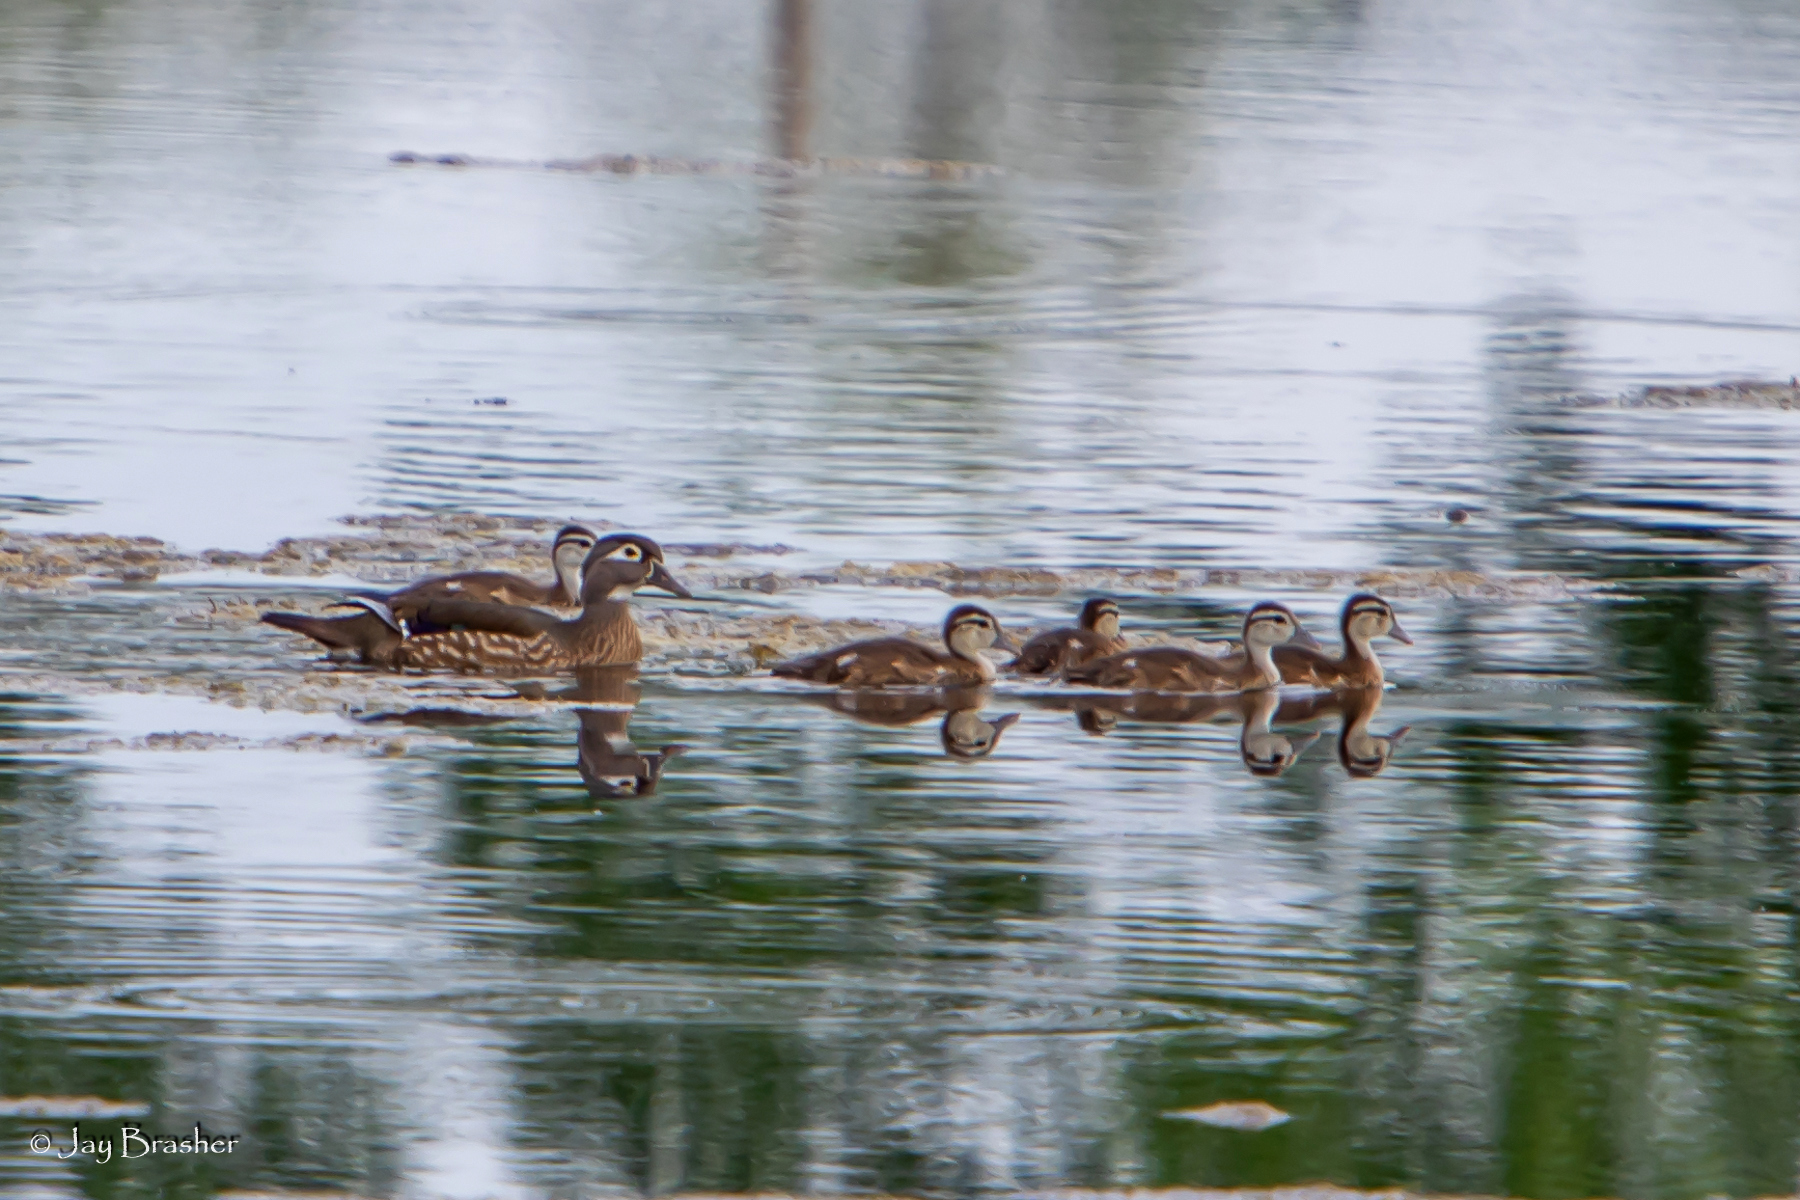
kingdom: Animalia
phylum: Chordata
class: Aves
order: Anseriformes
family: Anatidae
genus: Aix
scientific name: Aix sponsa
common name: Wood duck
